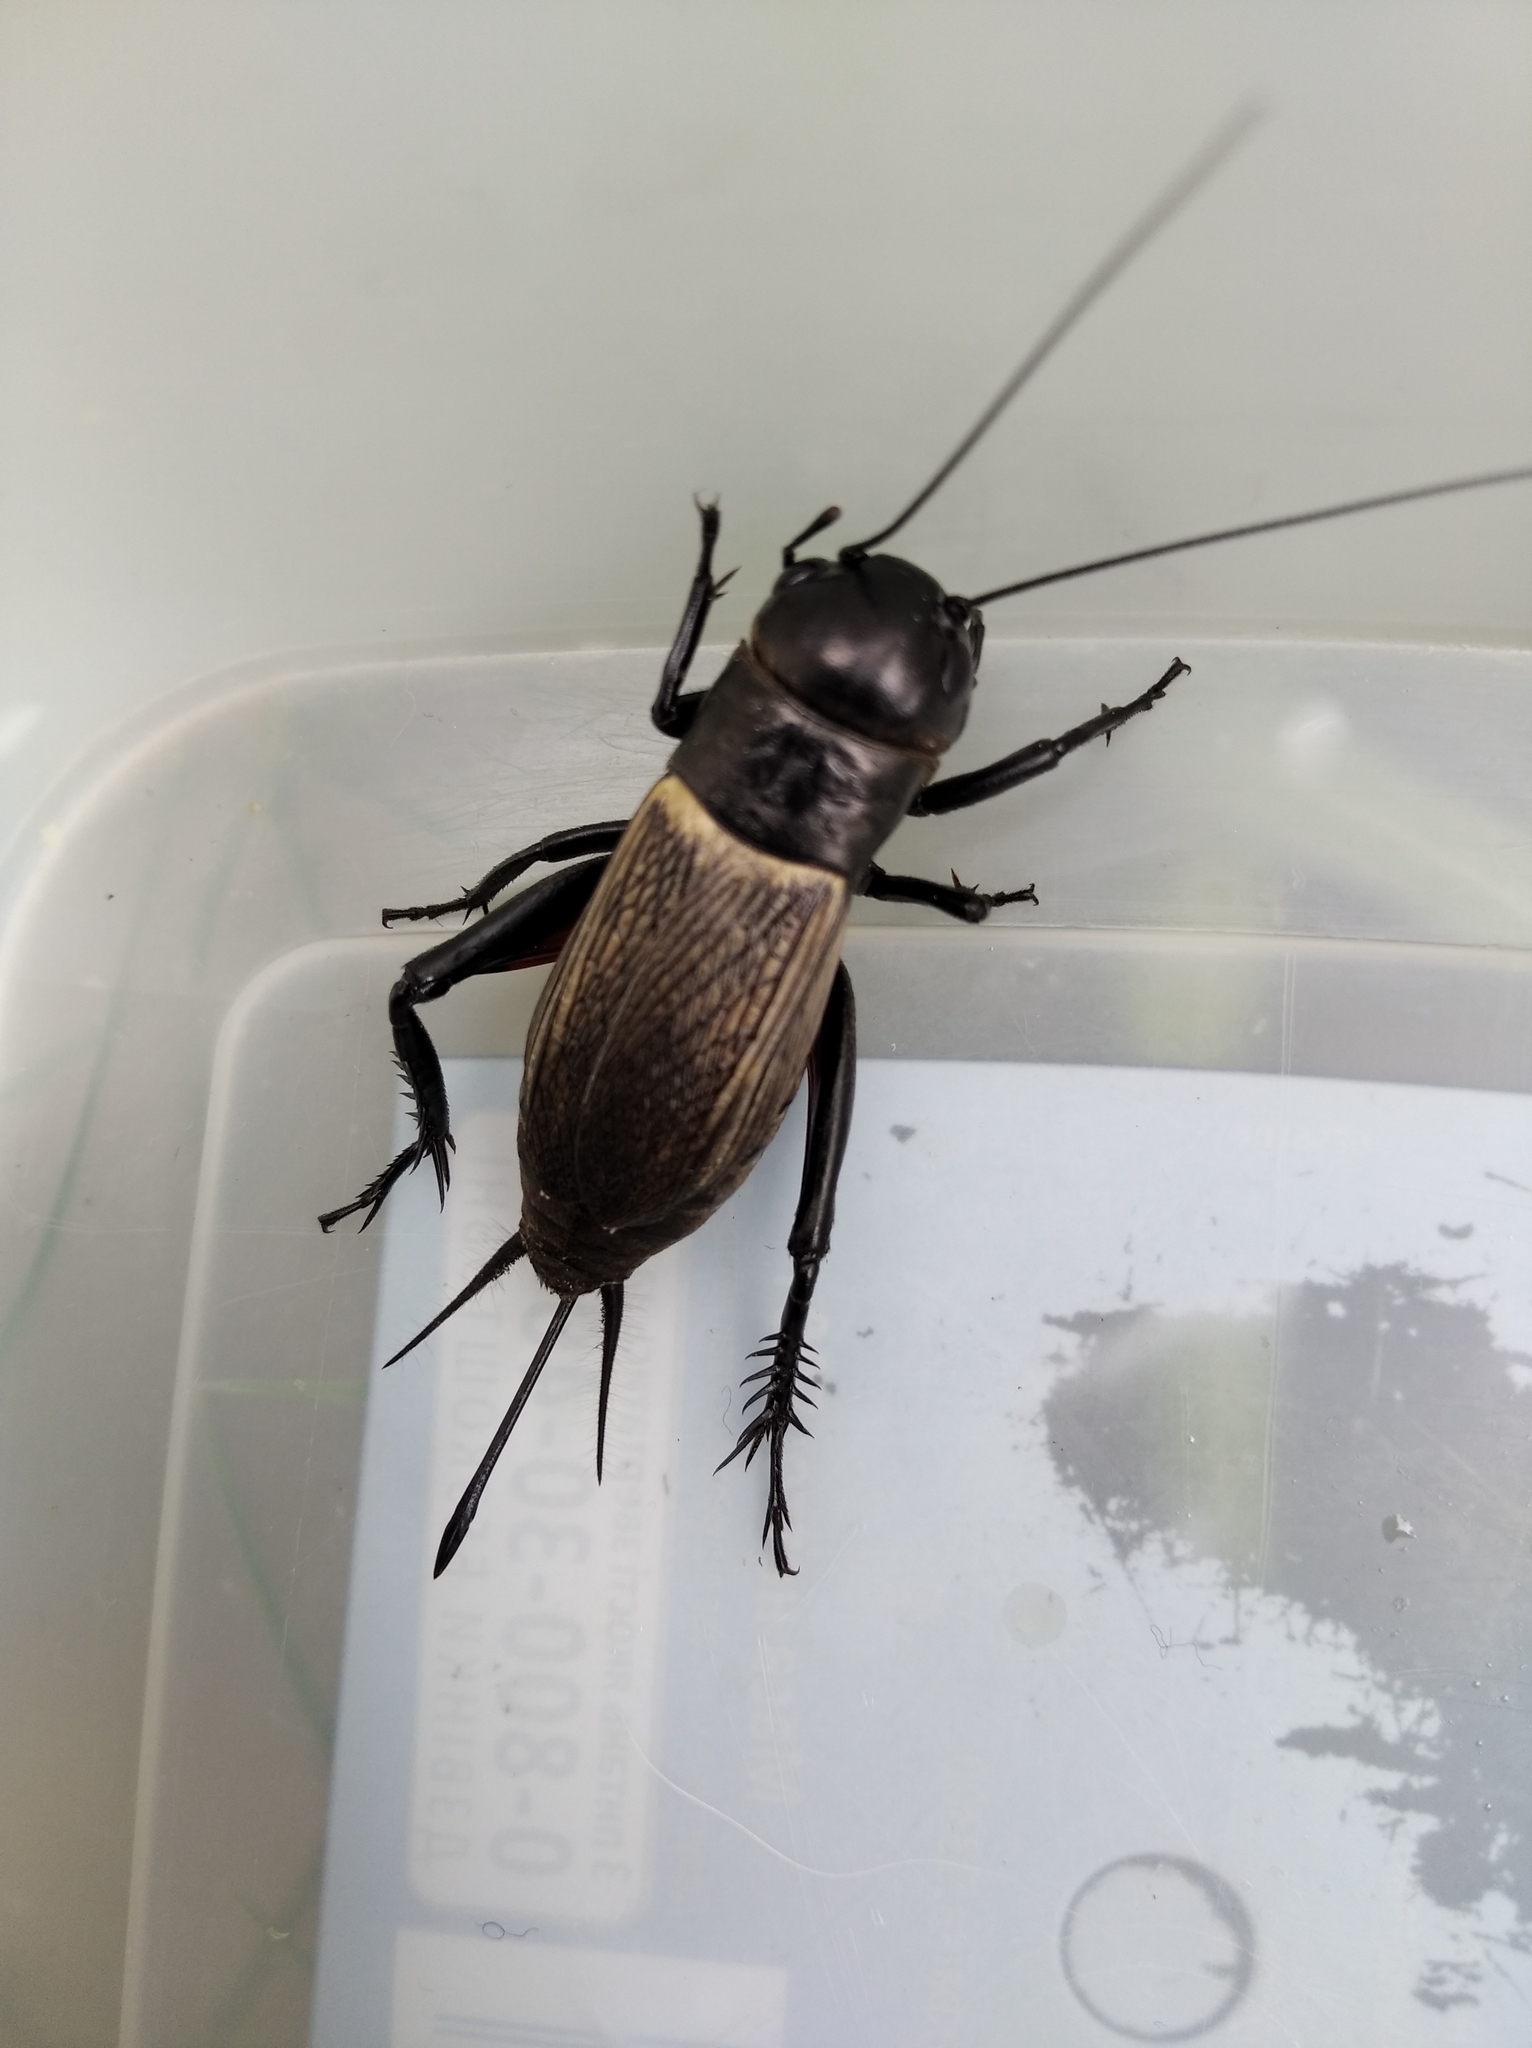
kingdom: Animalia
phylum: Arthropoda
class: Insecta
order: Orthoptera
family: Gryllidae
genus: Gryllus
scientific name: Gryllus campestris
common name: Field cricket
